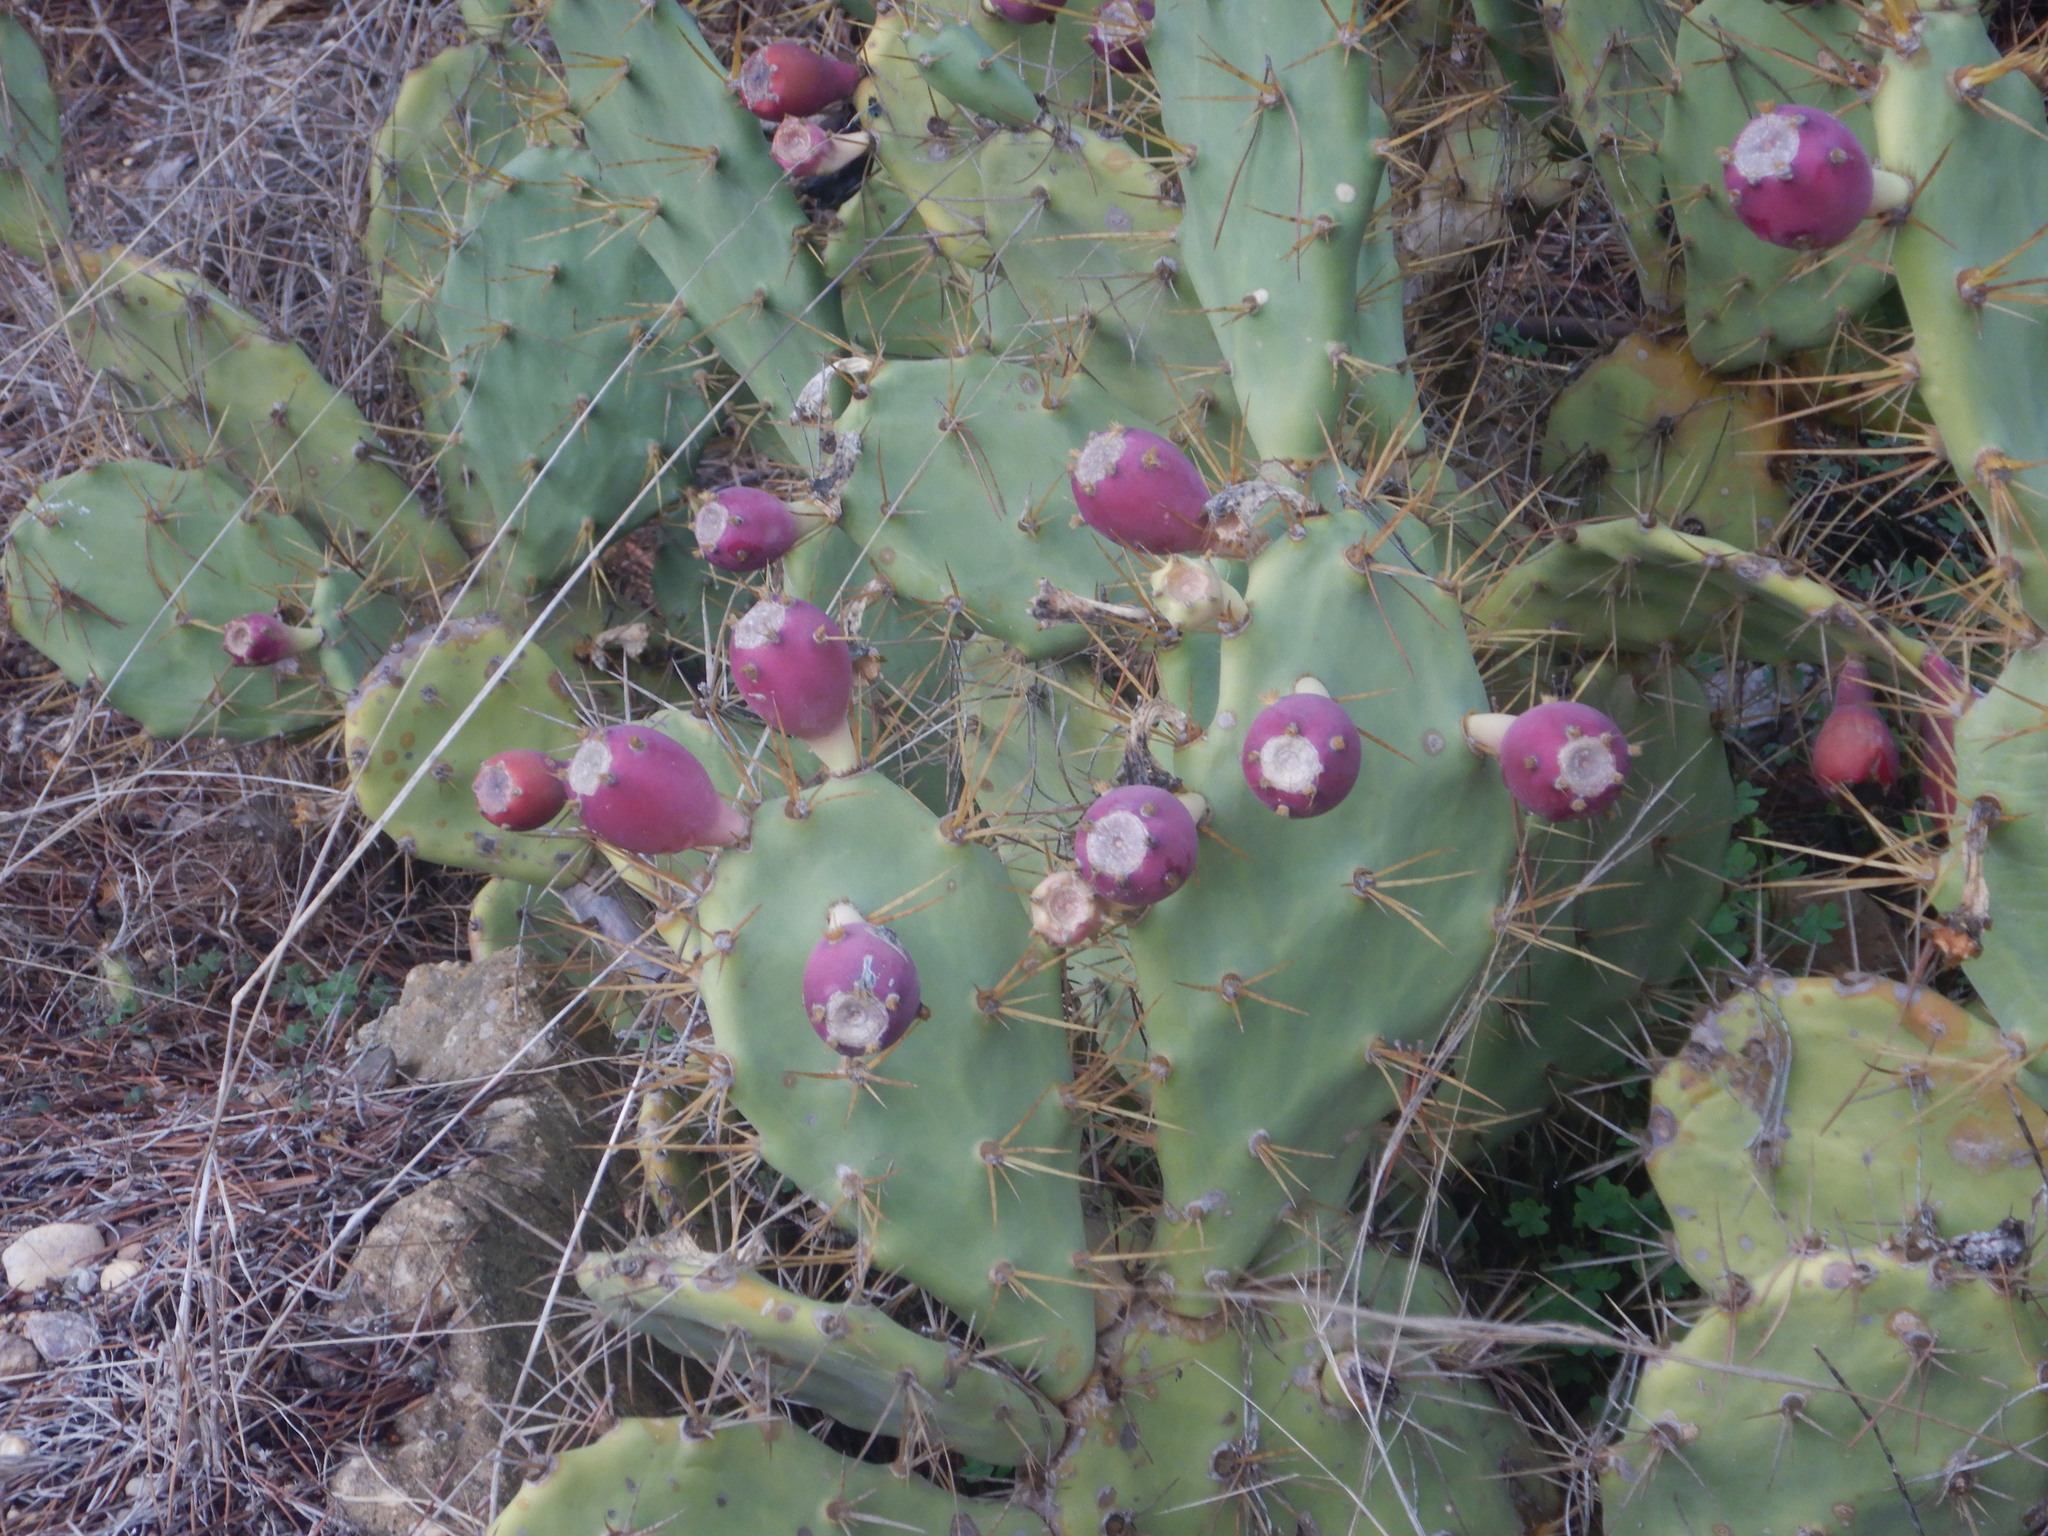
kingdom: Plantae
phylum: Tracheophyta
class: Magnoliopsida
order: Caryophyllales
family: Cactaceae
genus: Opuntia
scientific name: Opuntia stricta
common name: Erect pricklypear
